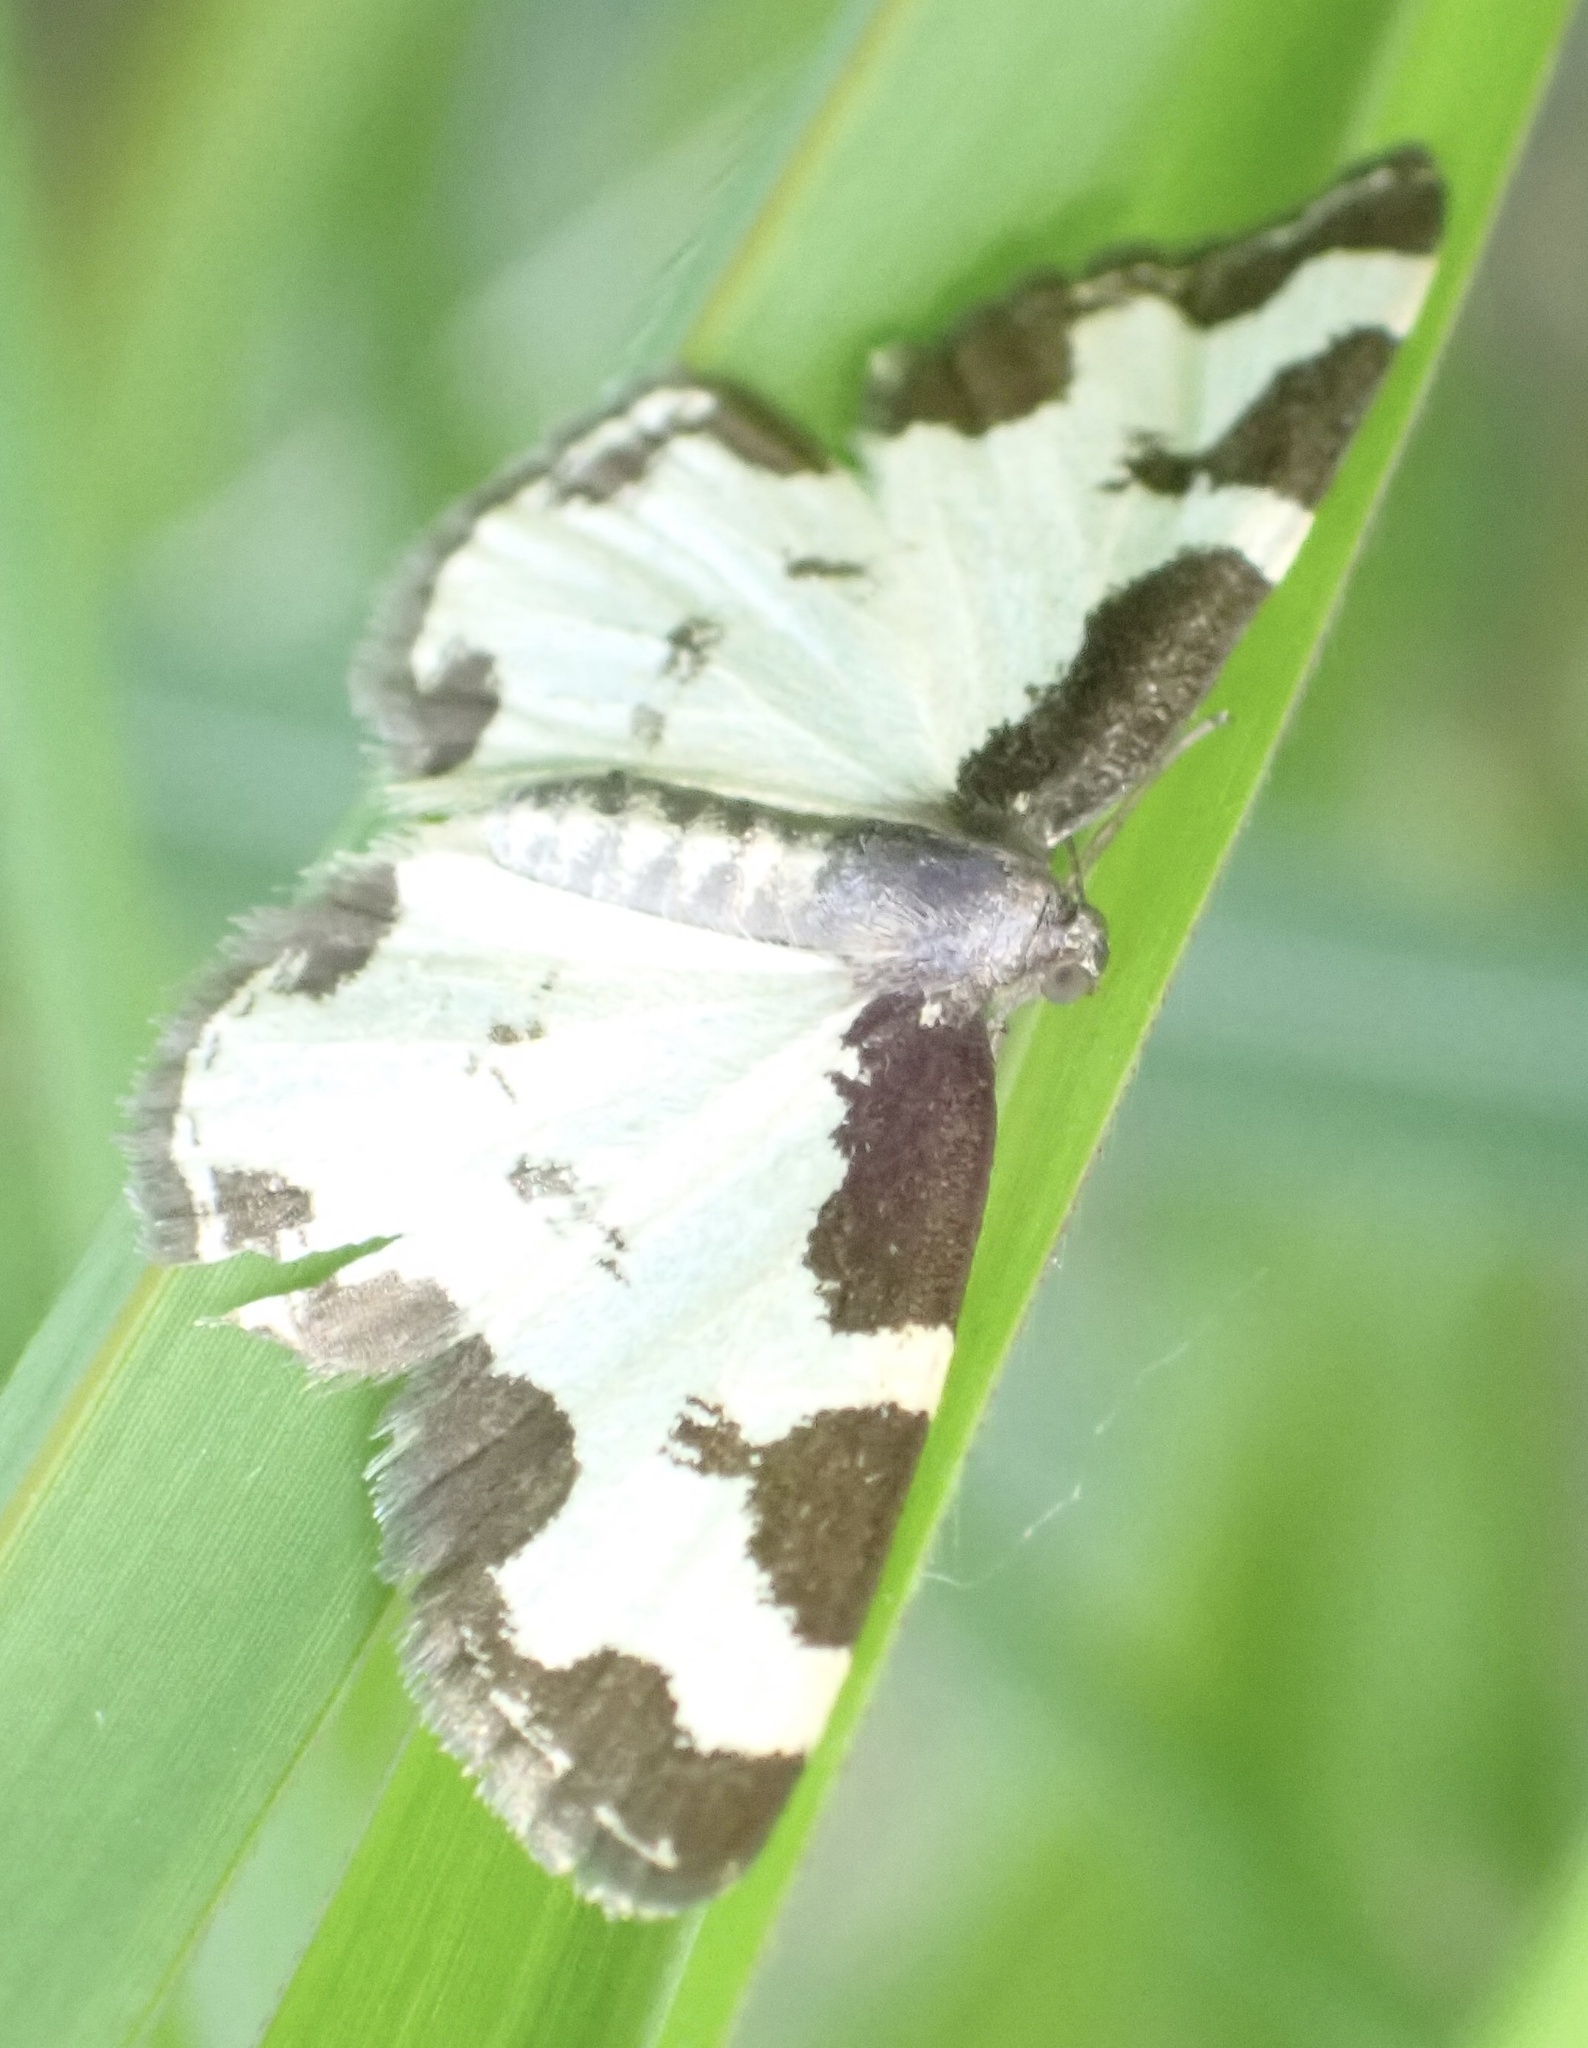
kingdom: Animalia
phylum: Arthropoda
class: Insecta
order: Lepidoptera
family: Geometridae
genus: Lomaspilis
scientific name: Lomaspilis marginata
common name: Clouded border
